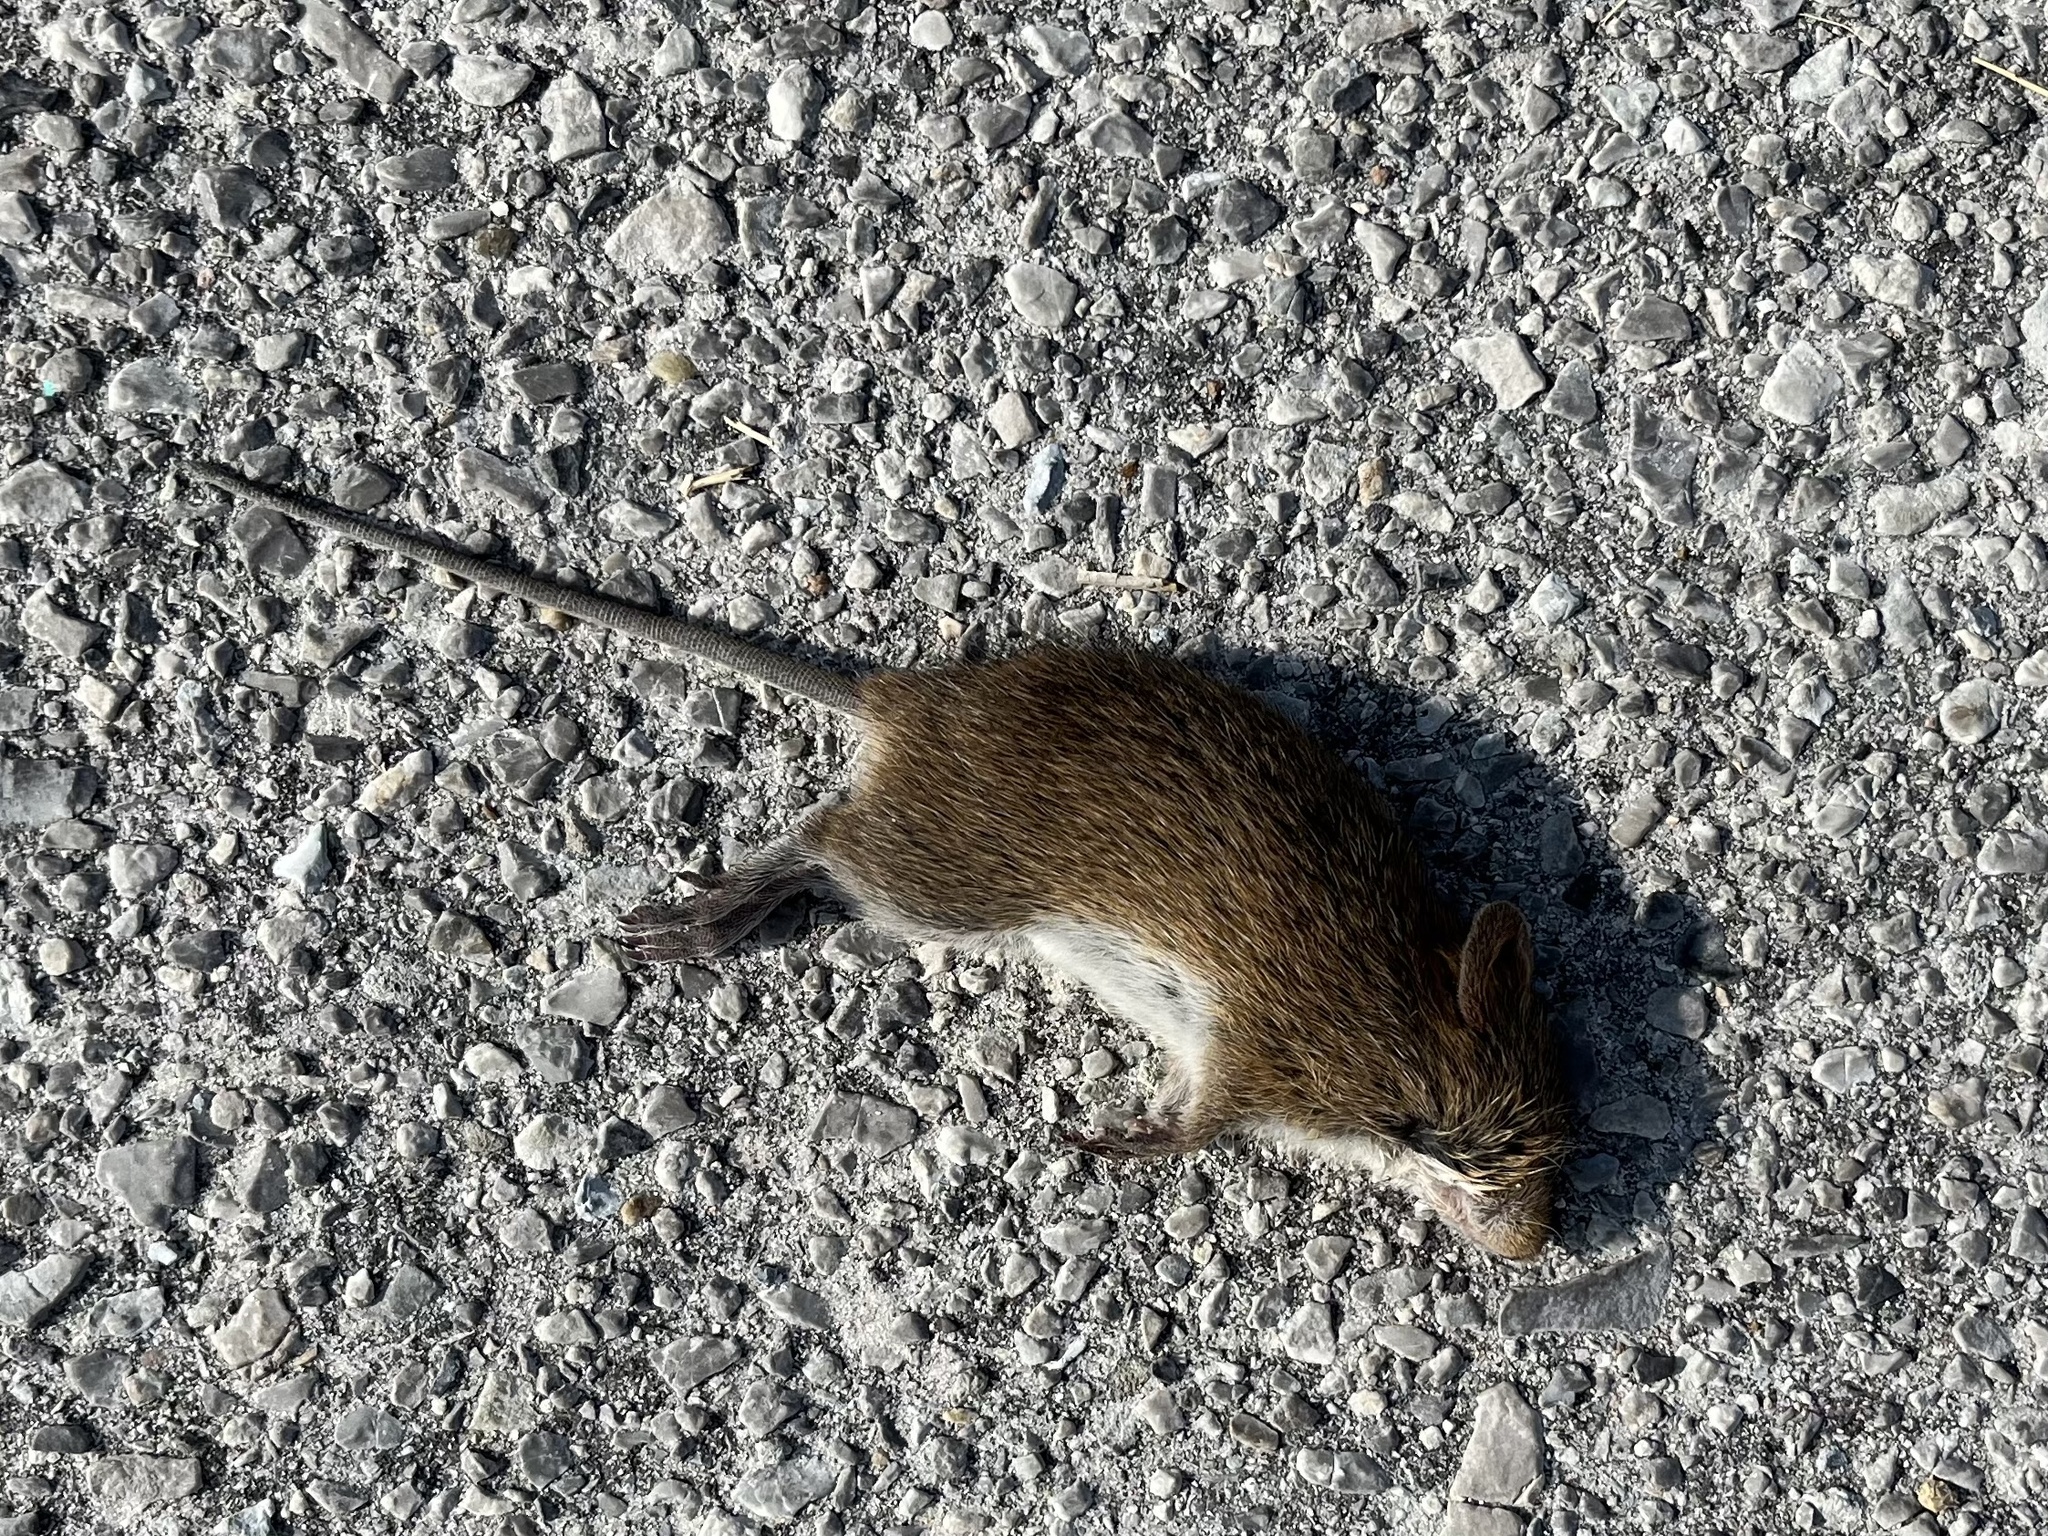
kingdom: Animalia
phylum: Chordata
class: Mammalia
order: Rodentia
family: Cricetidae
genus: Sigmodon
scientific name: Sigmodon hispidus
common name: Hispid cotton rat
